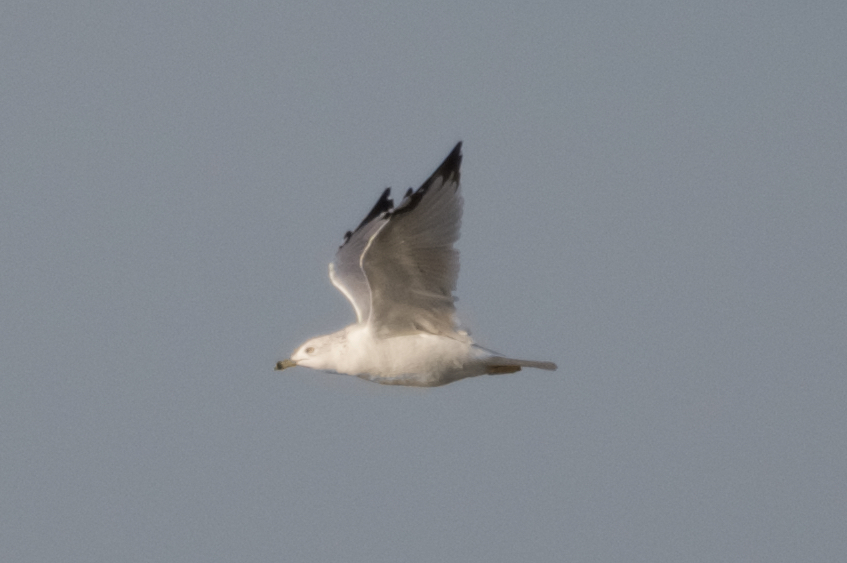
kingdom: Animalia
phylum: Chordata
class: Aves
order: Charadriiformes
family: Laridae
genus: Larus
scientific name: Larus delawarensis
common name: Ring-billed gull
